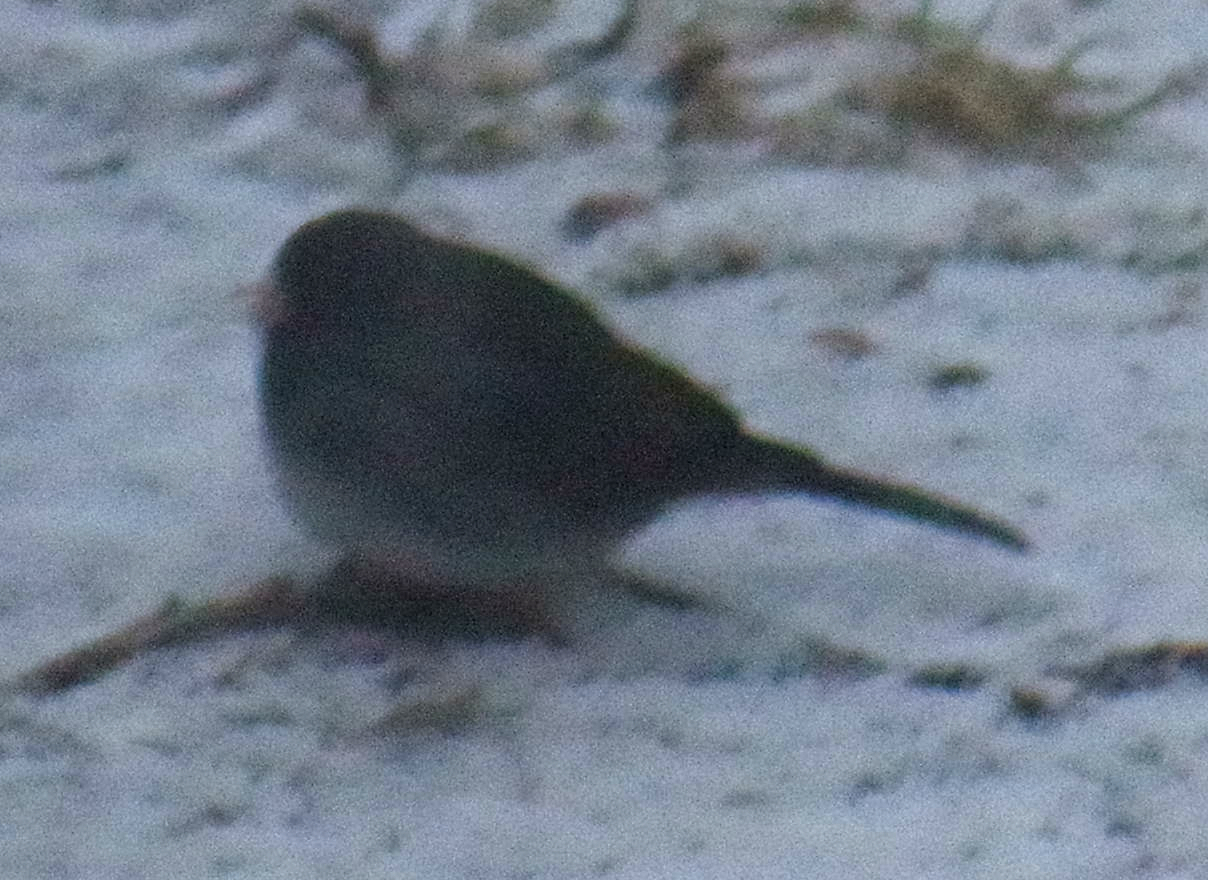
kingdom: Animalia
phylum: Chordata
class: Aves
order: Passeriformes
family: Passerellidae
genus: Junco
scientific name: Junco hyemalis
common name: Dark-eyed junco
